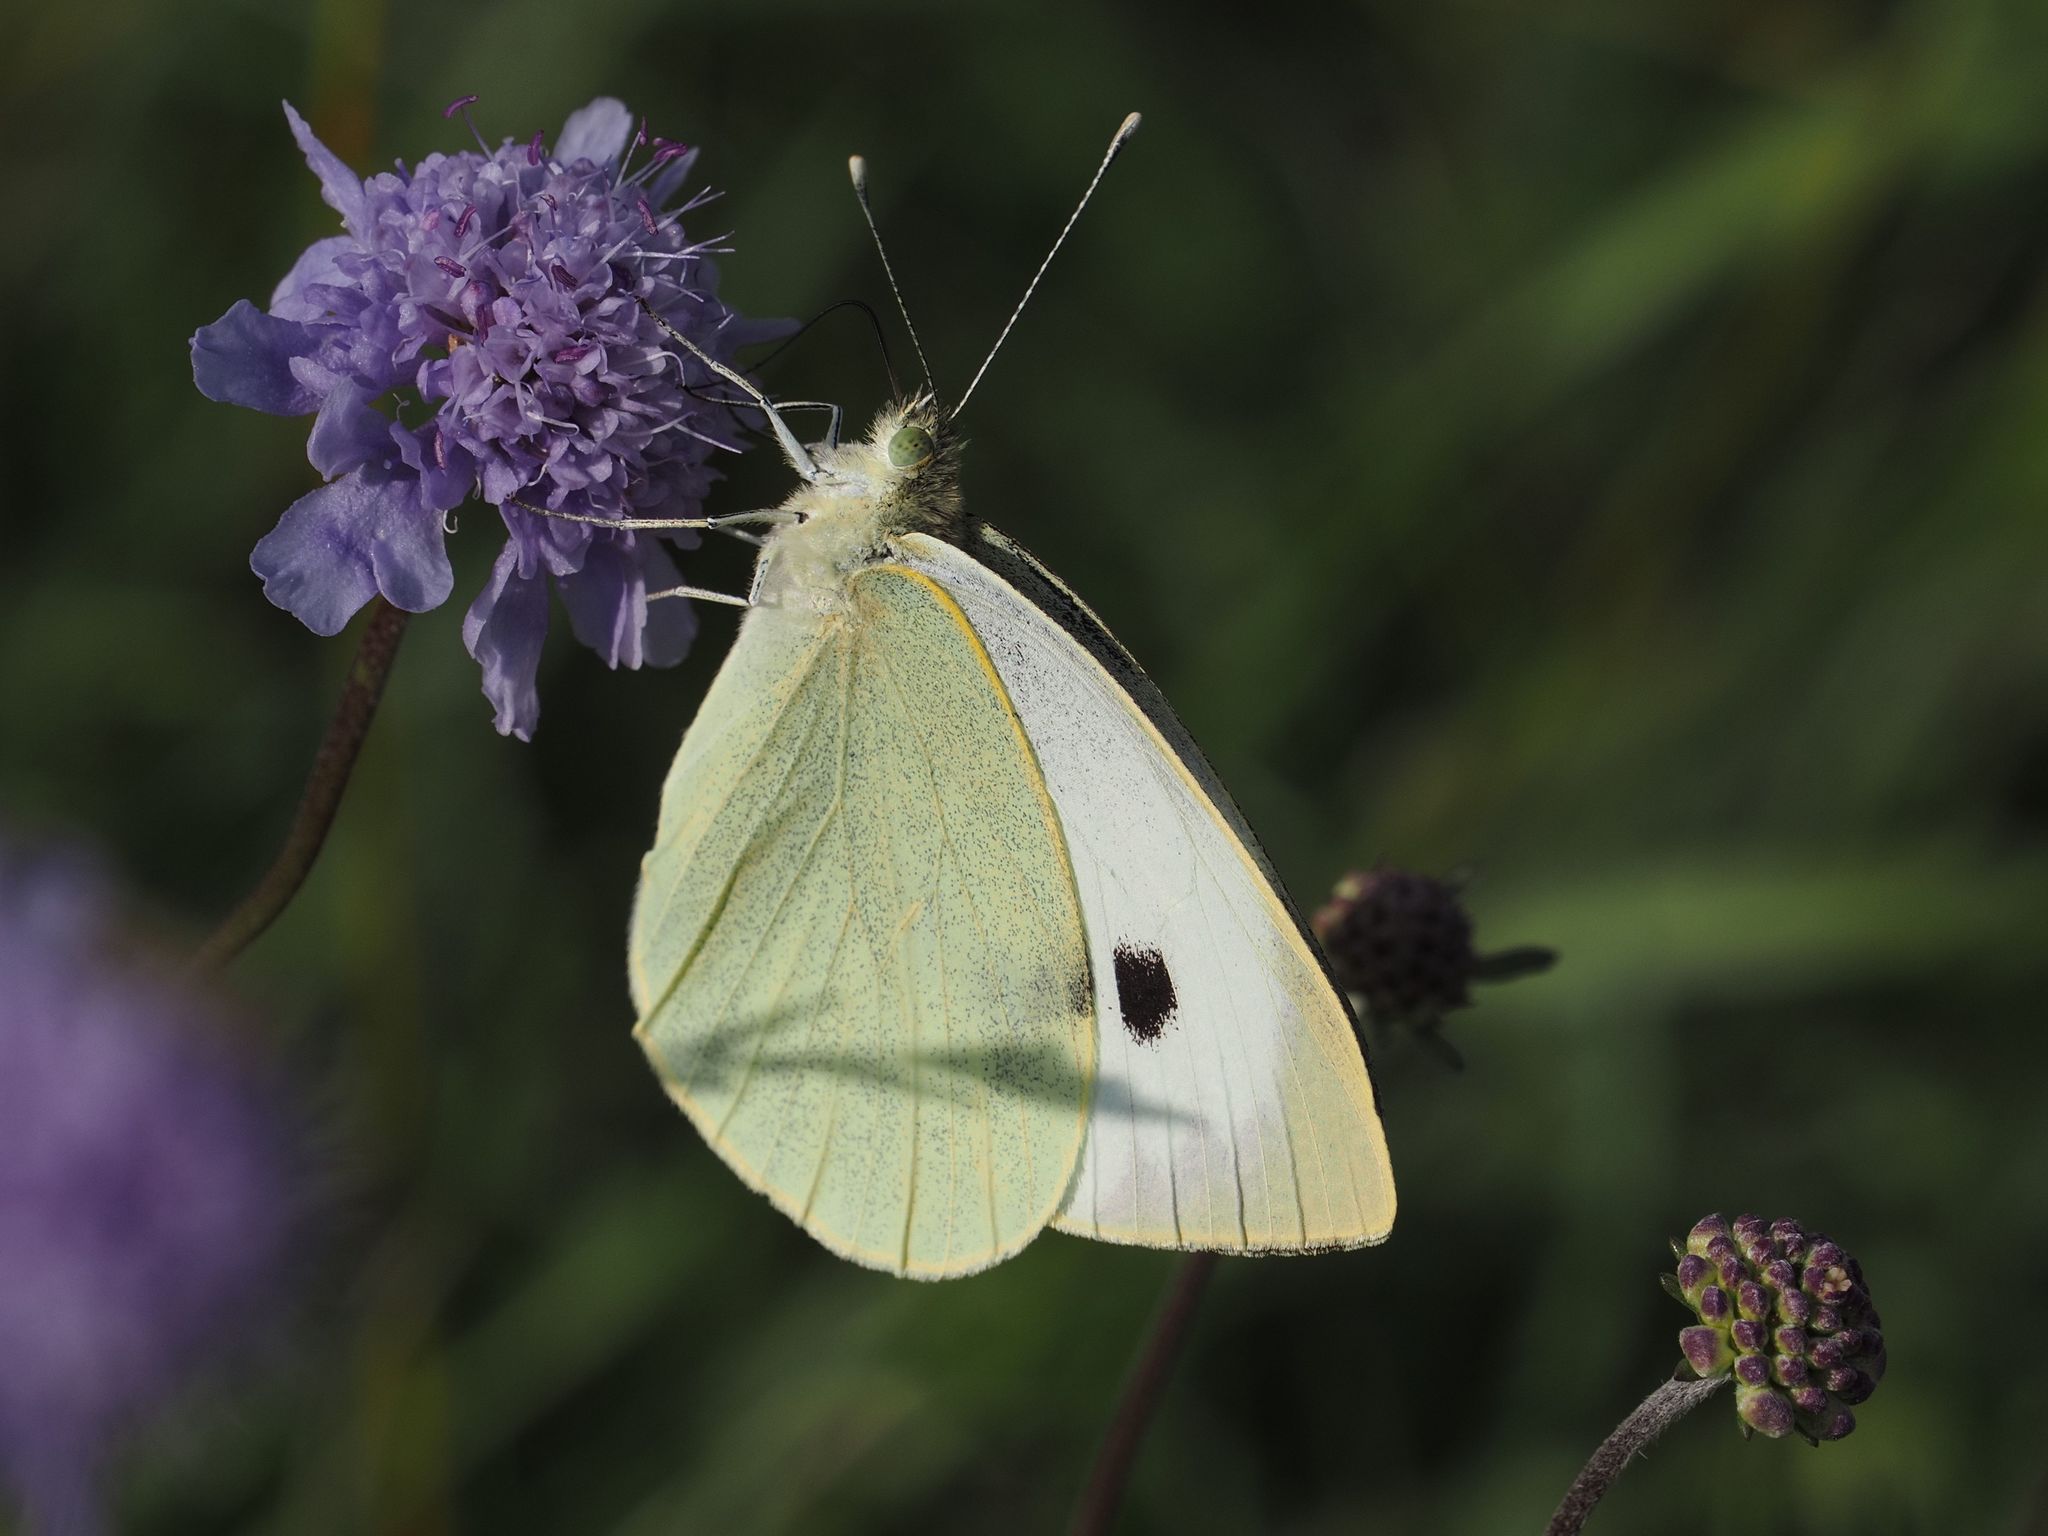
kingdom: Animalia
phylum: Arthropoda
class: Insecta
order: Lepidoptera
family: Pieridae
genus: Pieris
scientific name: Pieris brassicae
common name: Large white
